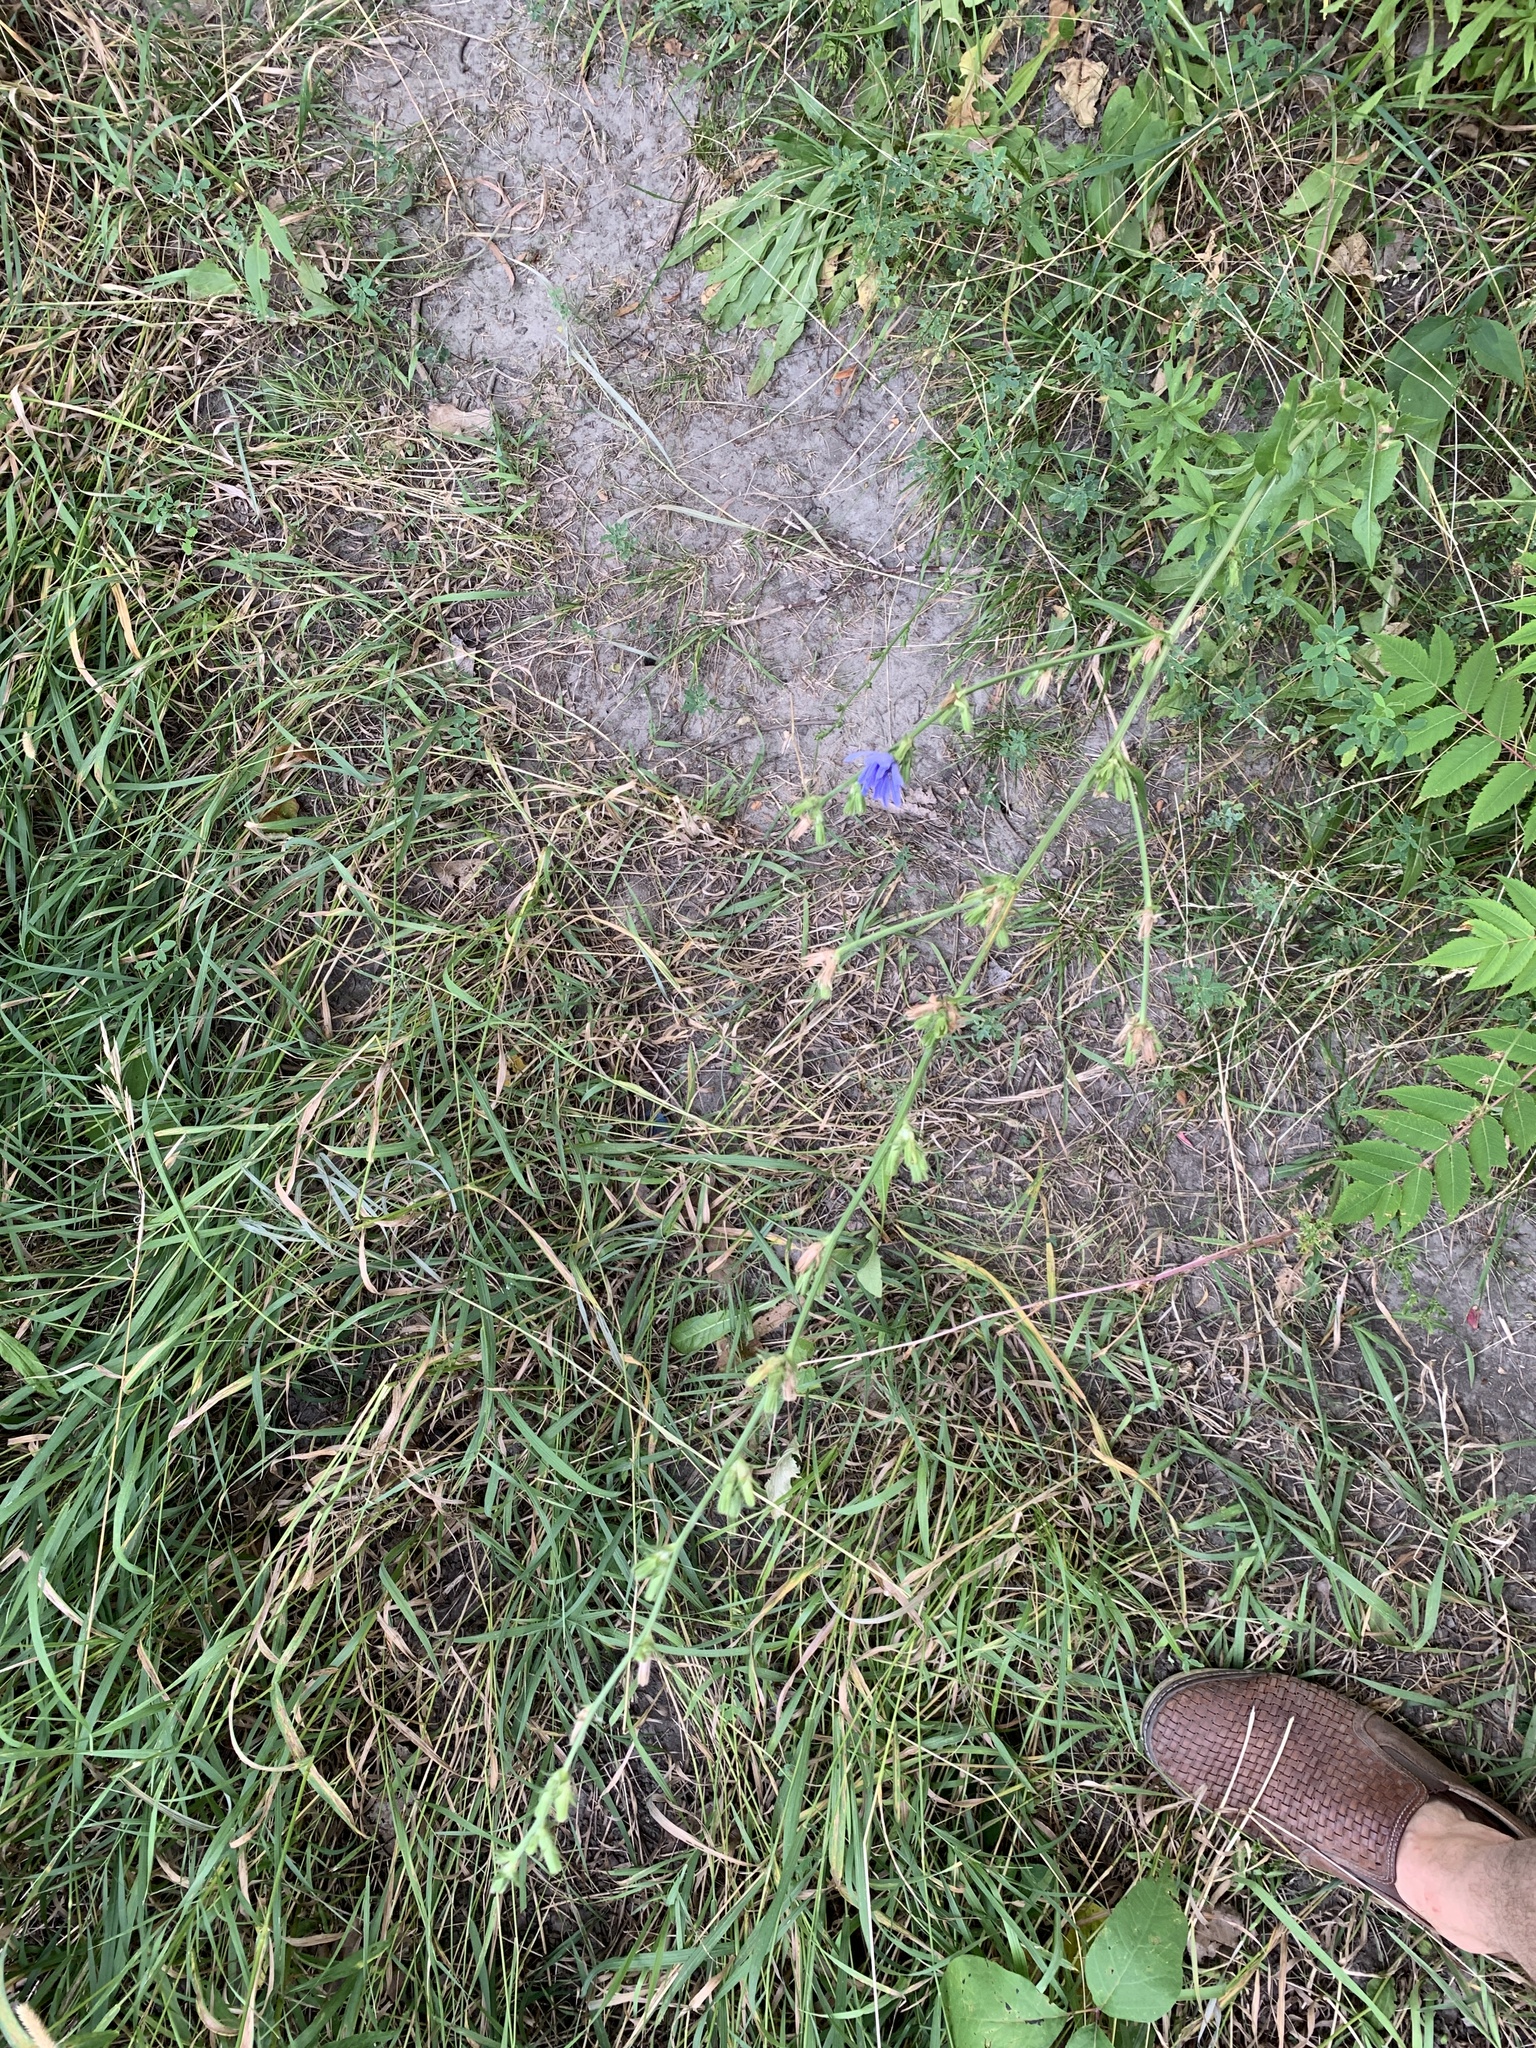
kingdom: Plantae
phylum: Tracheophyta
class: Magnoliopsida
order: Asterales
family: Asteraceae
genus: Cichorium
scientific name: Cichorium intybus
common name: Chicory
